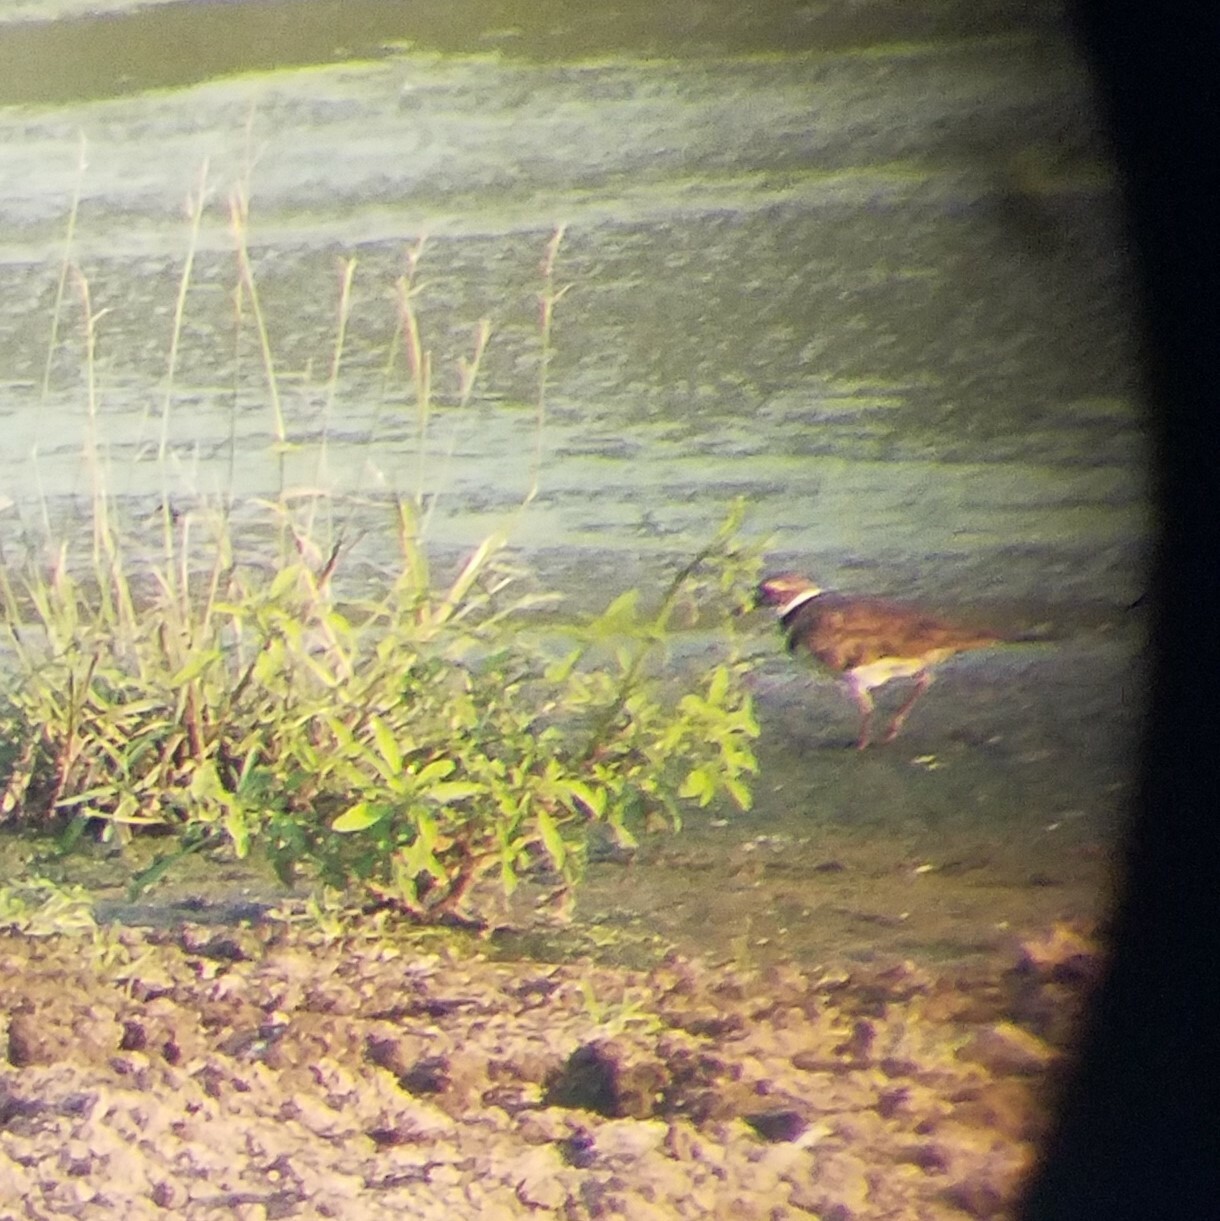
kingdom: Animalia
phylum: Chordata
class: Aves
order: Charadriiformes
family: Charadriidae
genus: Charadrius
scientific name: Charadrius vociferus
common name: Killdeer
